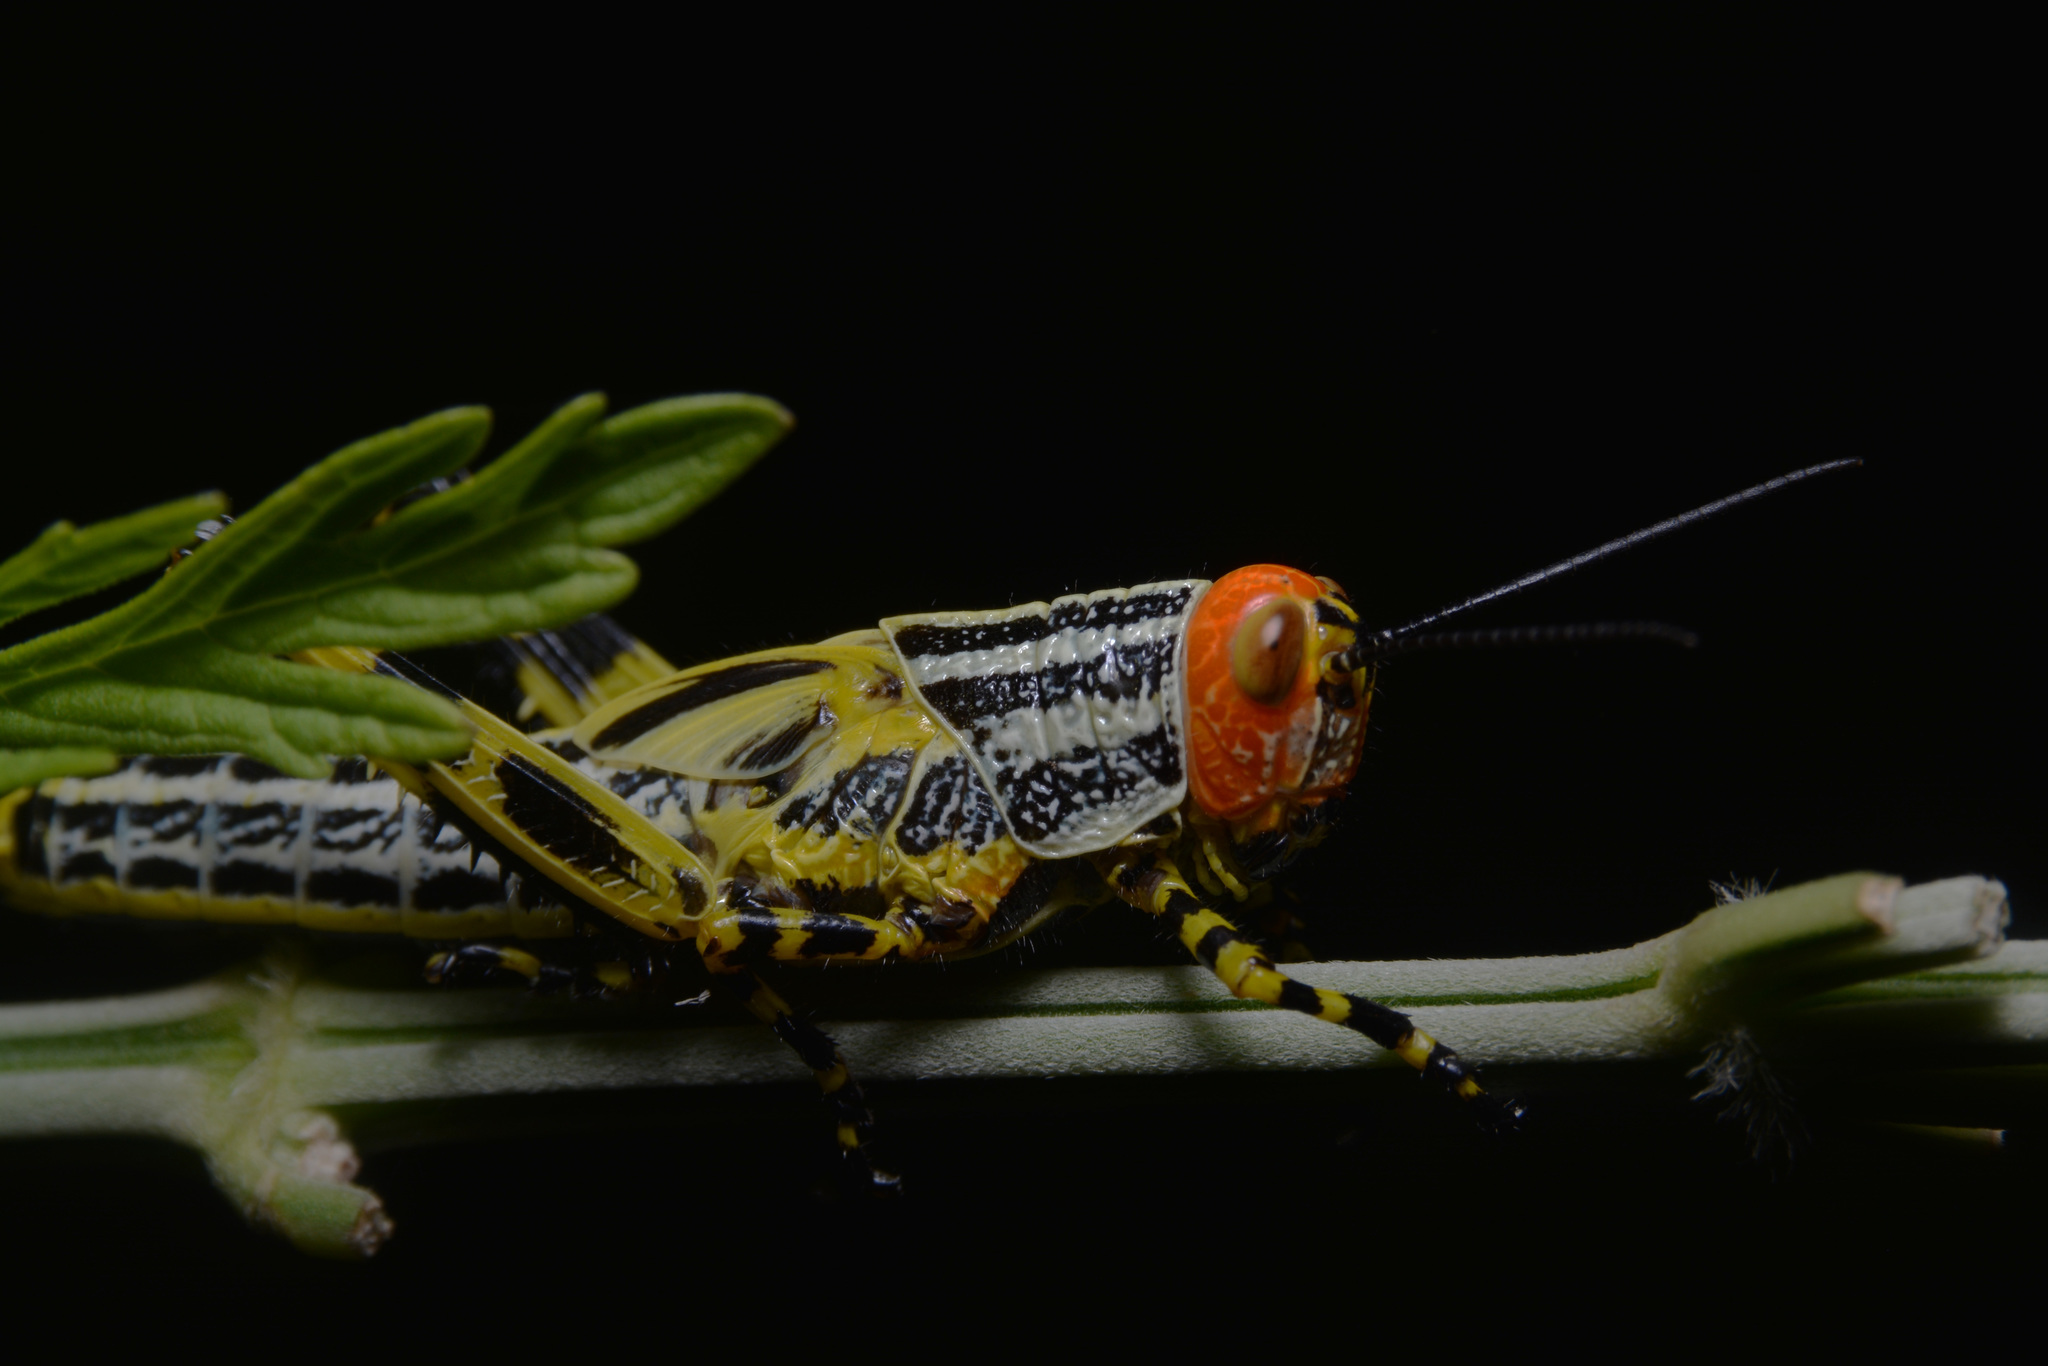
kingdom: Animalia
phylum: Arthropoda
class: Insecta
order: Orthoptera
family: Romaleidae
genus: Zoniopoda
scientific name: Zoniopoda tarsata
